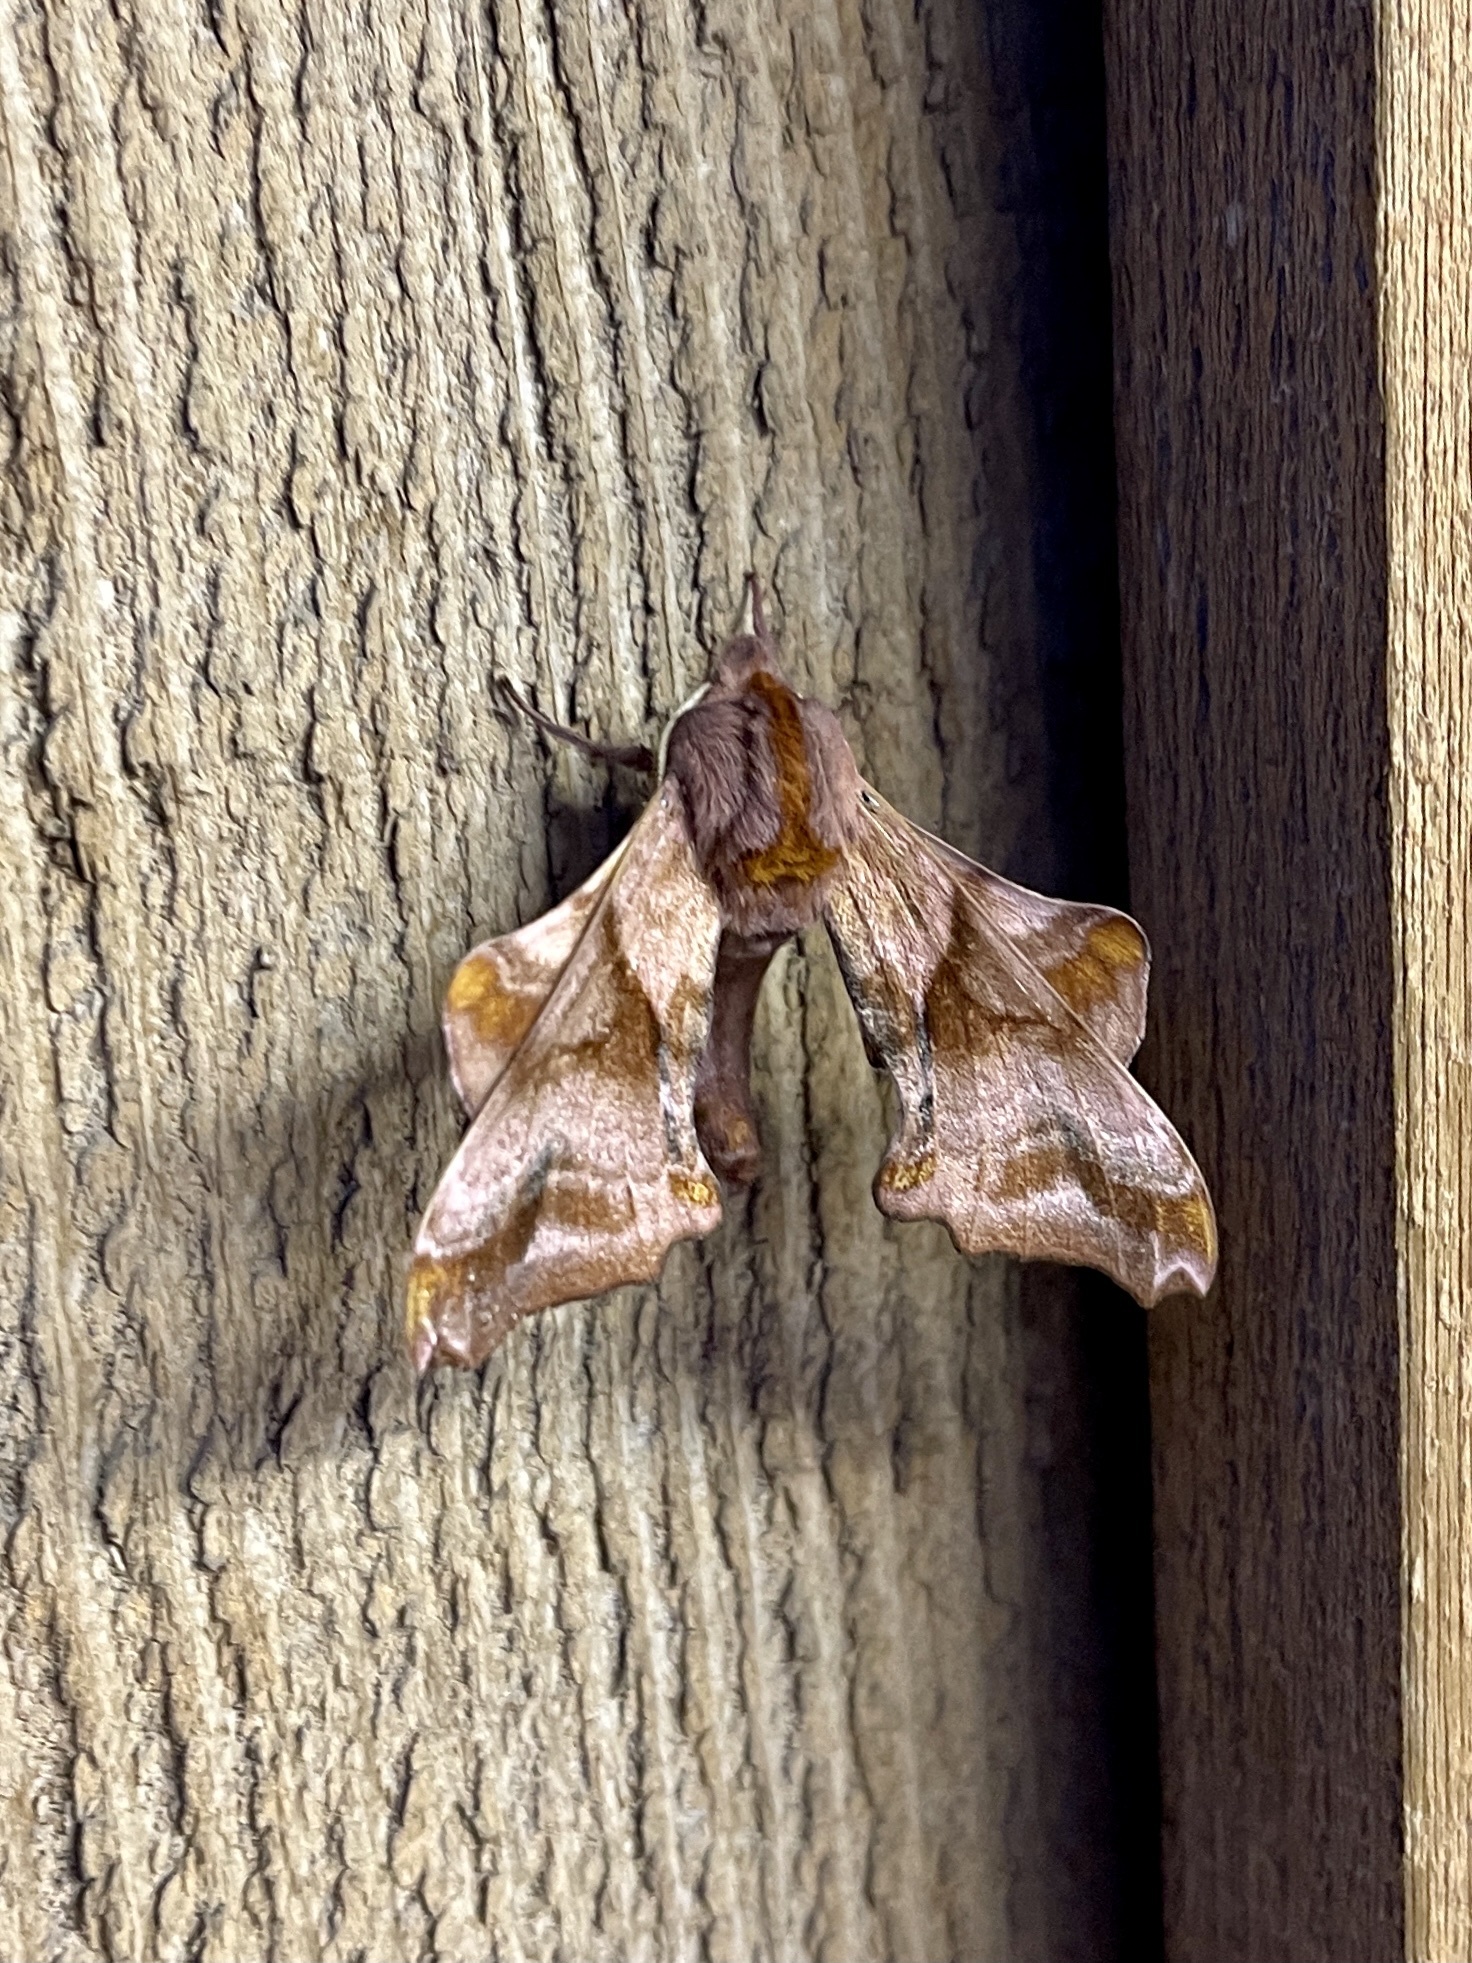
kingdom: Animalia
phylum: Arthropoda
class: Insecta
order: Lepidoptera
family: Sphingidae
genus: Paonias
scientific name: Paonias myops
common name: Small-eyed sphinx
